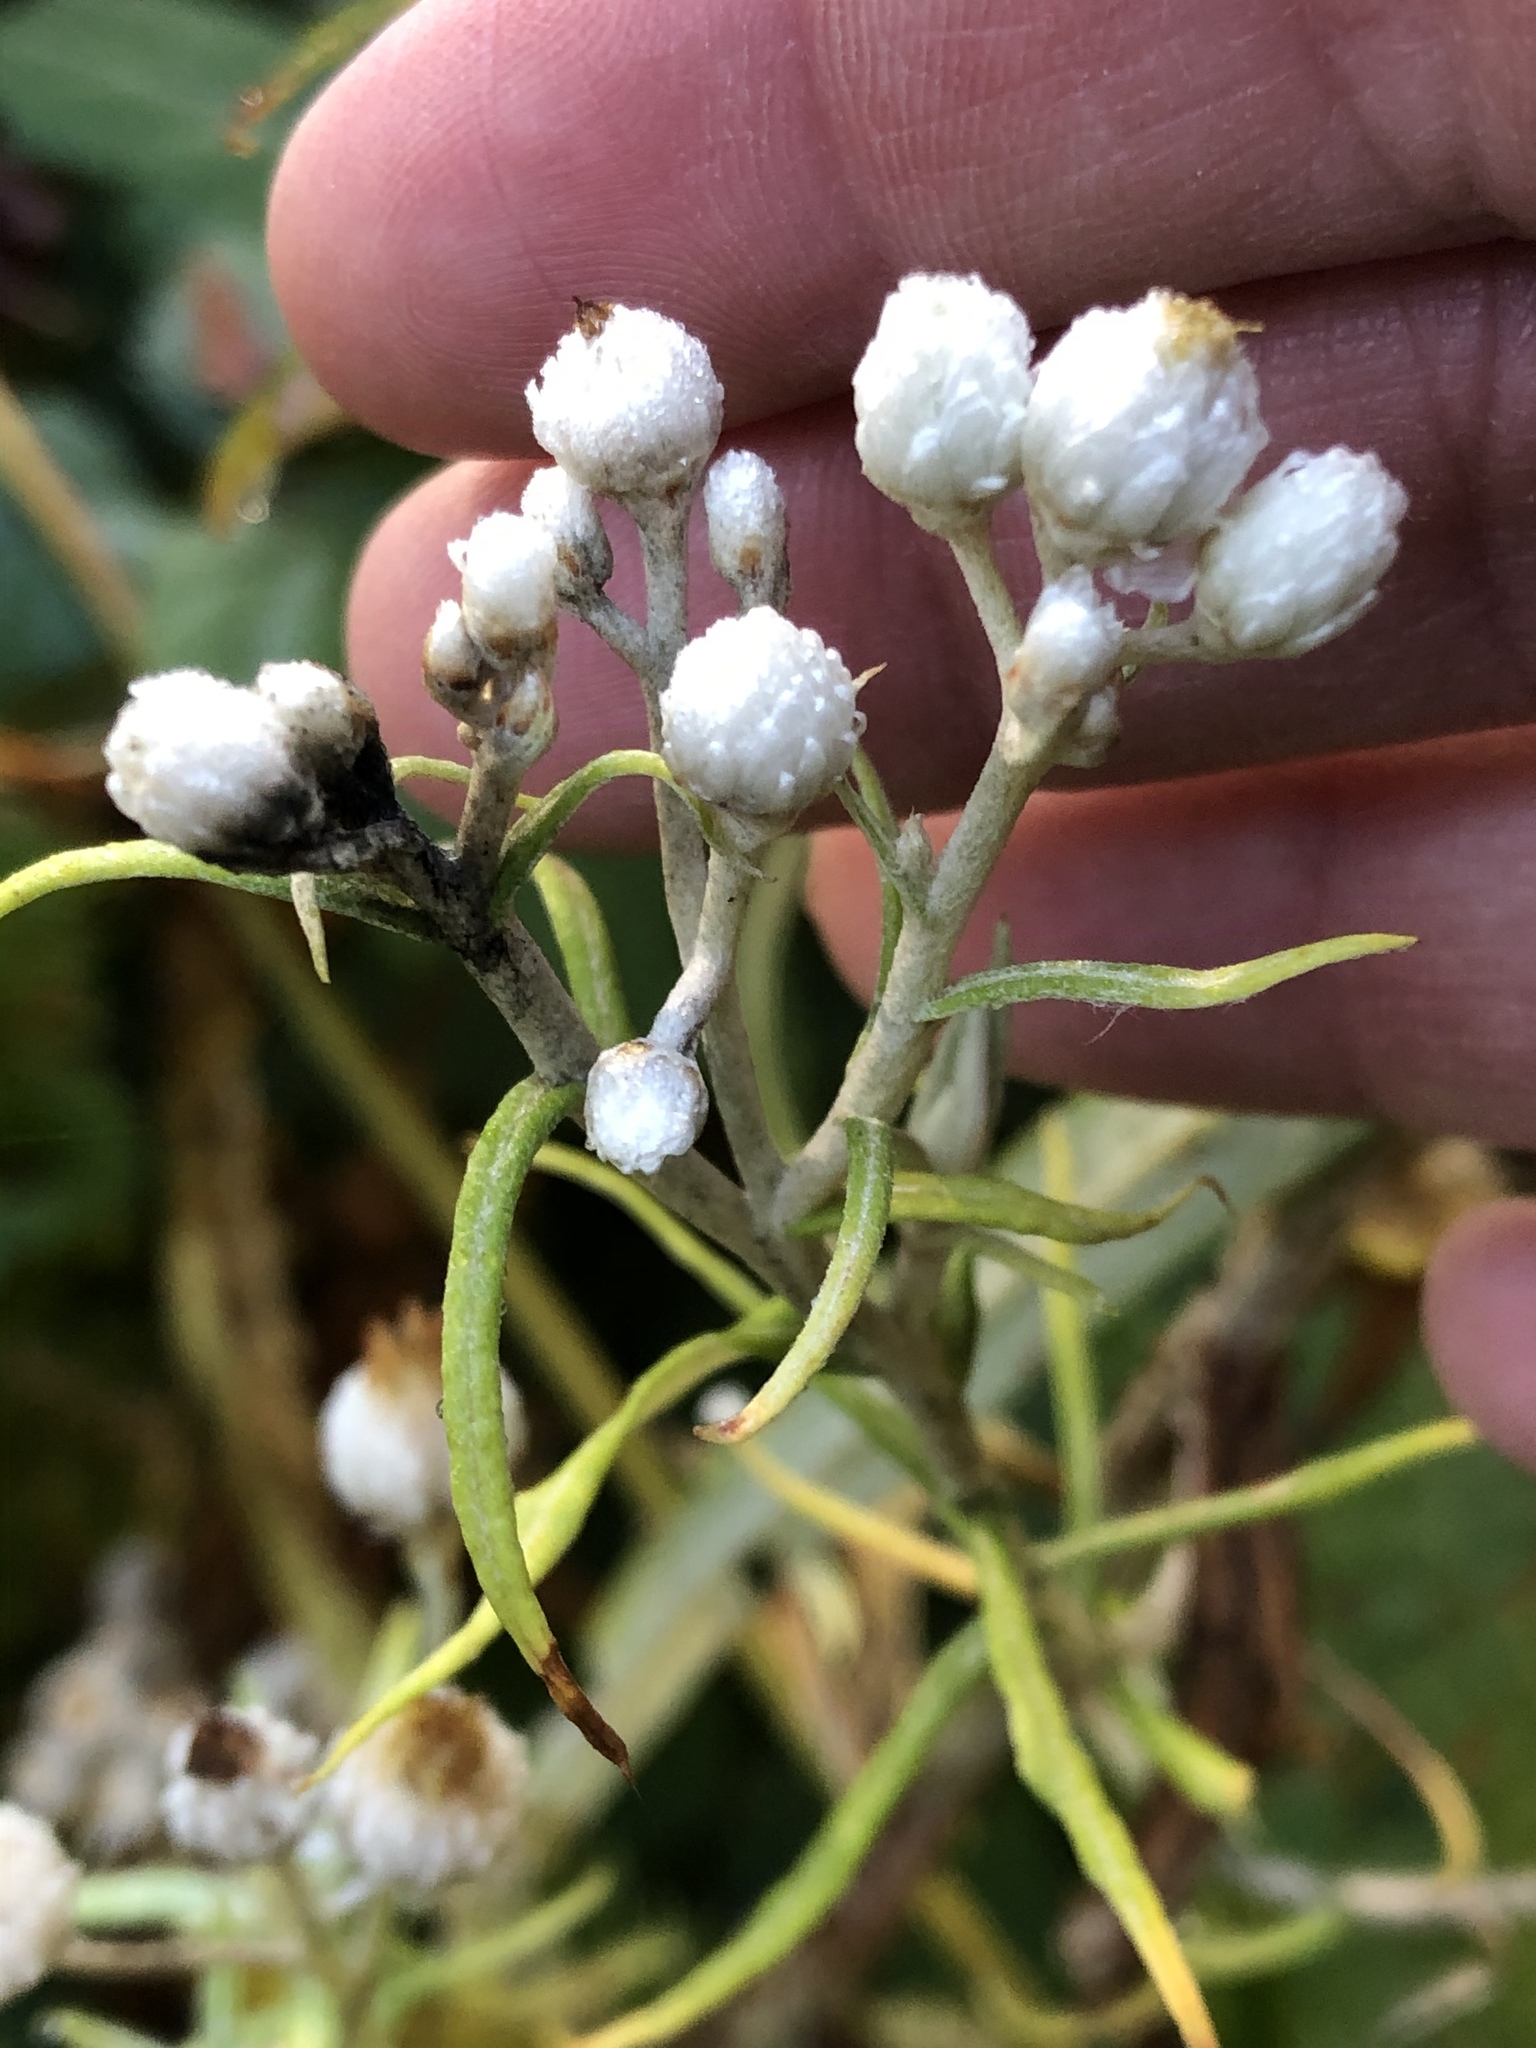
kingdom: Plantae
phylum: Tracheophyta
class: Magnoliopsida
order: Asterales
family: Asteraceae
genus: Anaphalis
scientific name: Anaphalis margaritacea
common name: Pearly everlasting
